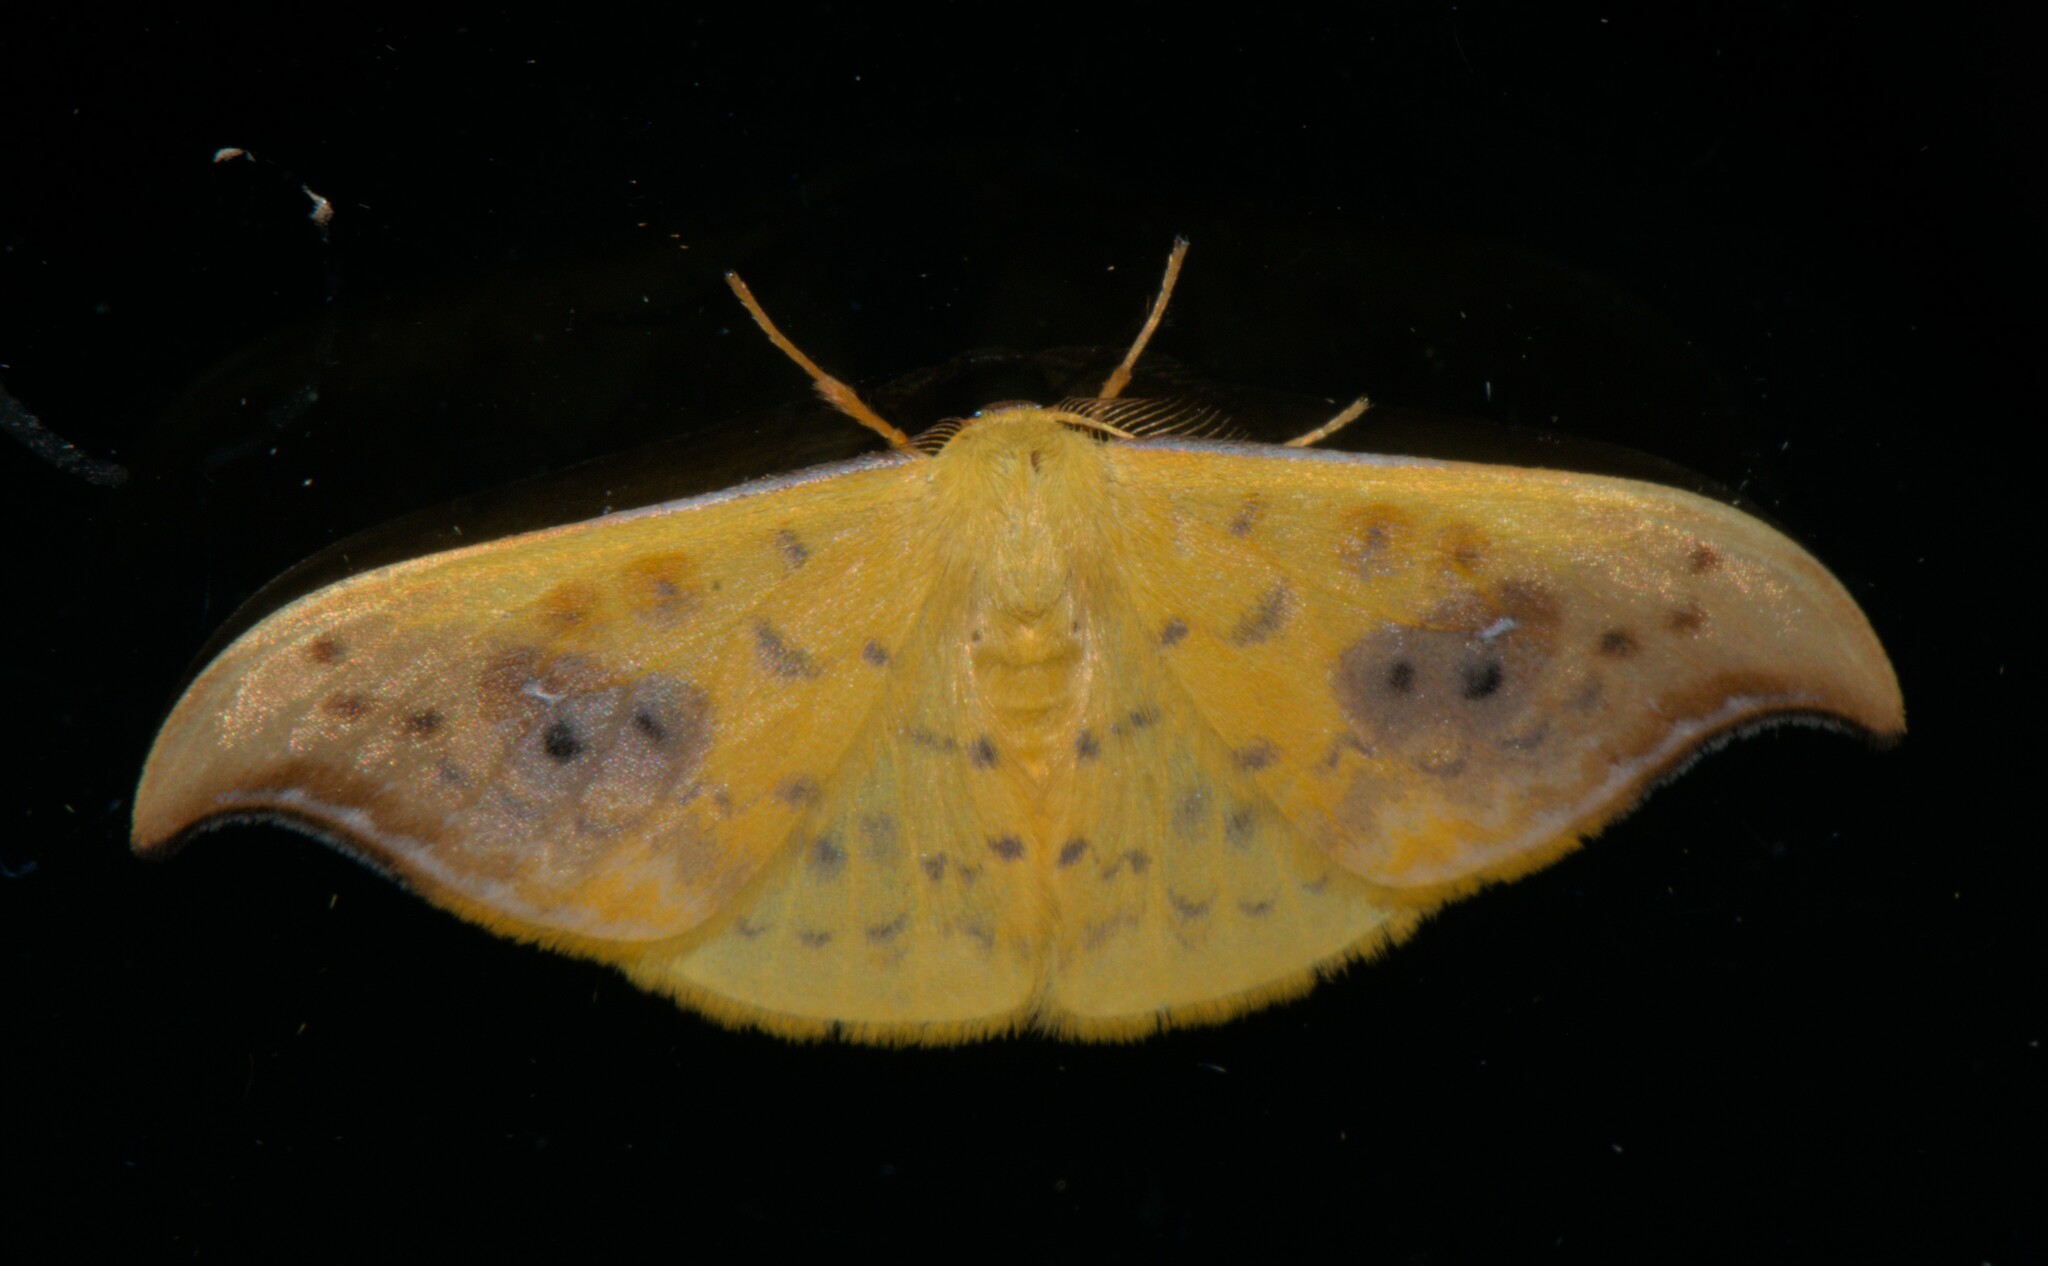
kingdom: Animalia
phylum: Arthropoda
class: Insecta
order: Lepidoptera
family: Drepanidae
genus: Tridrepana
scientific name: Tridrepana sadana
